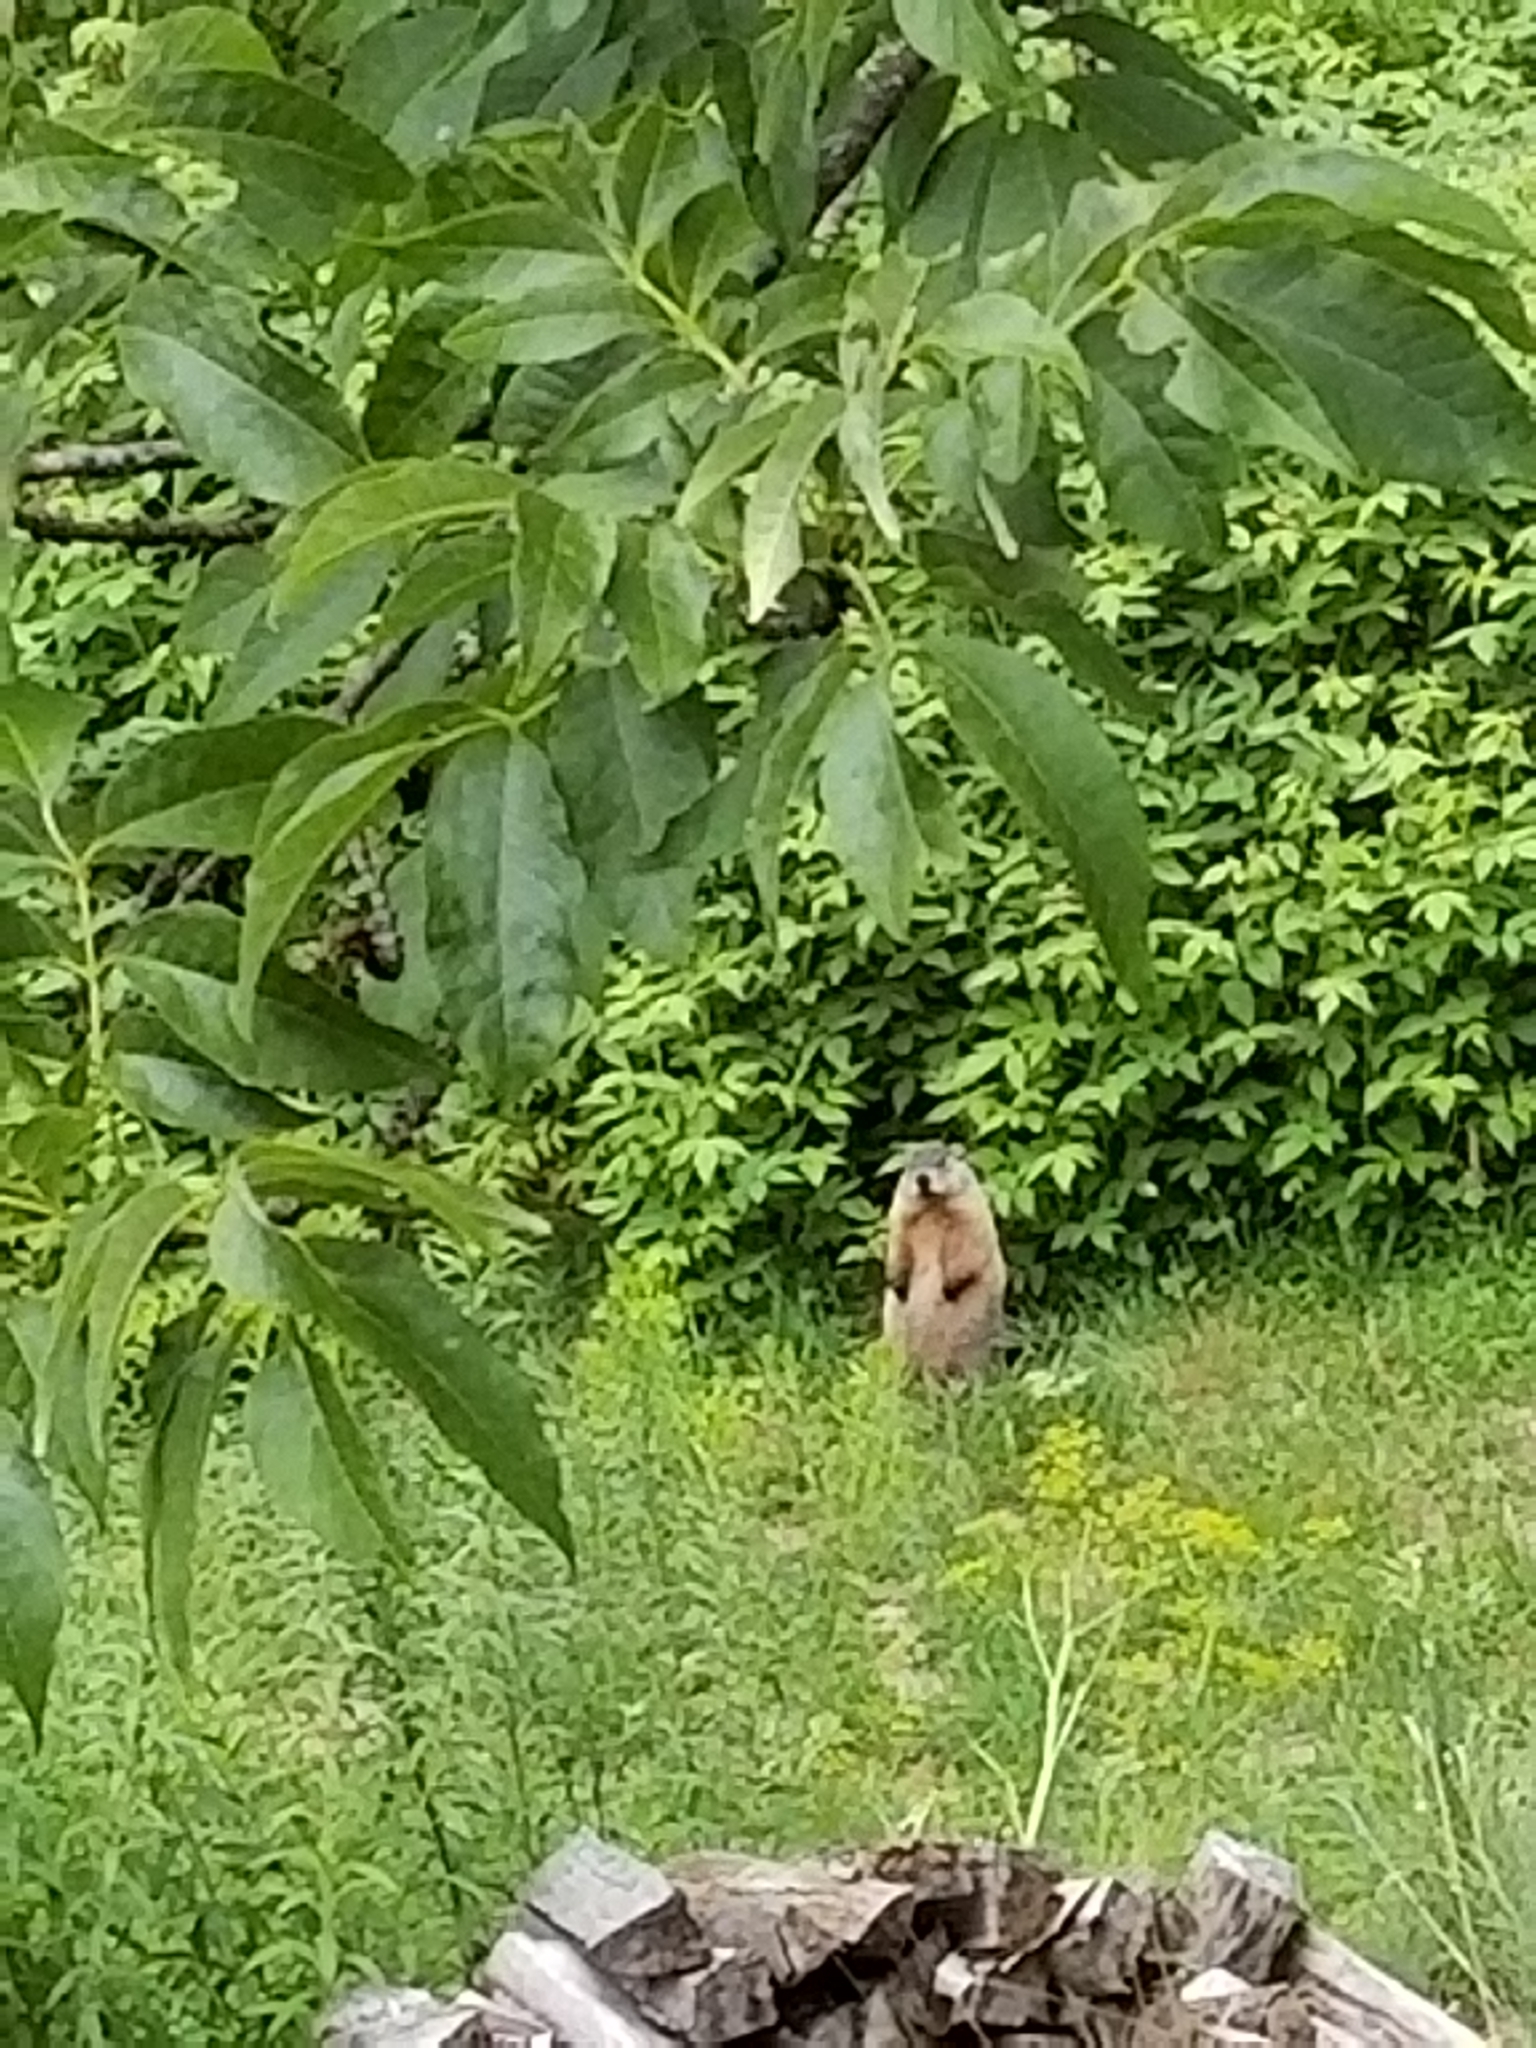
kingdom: Animalia
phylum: Chordata
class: Mammalia
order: Rodentia
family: Sciuridae
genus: Marmota
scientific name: Marmota monax
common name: Groundhog
